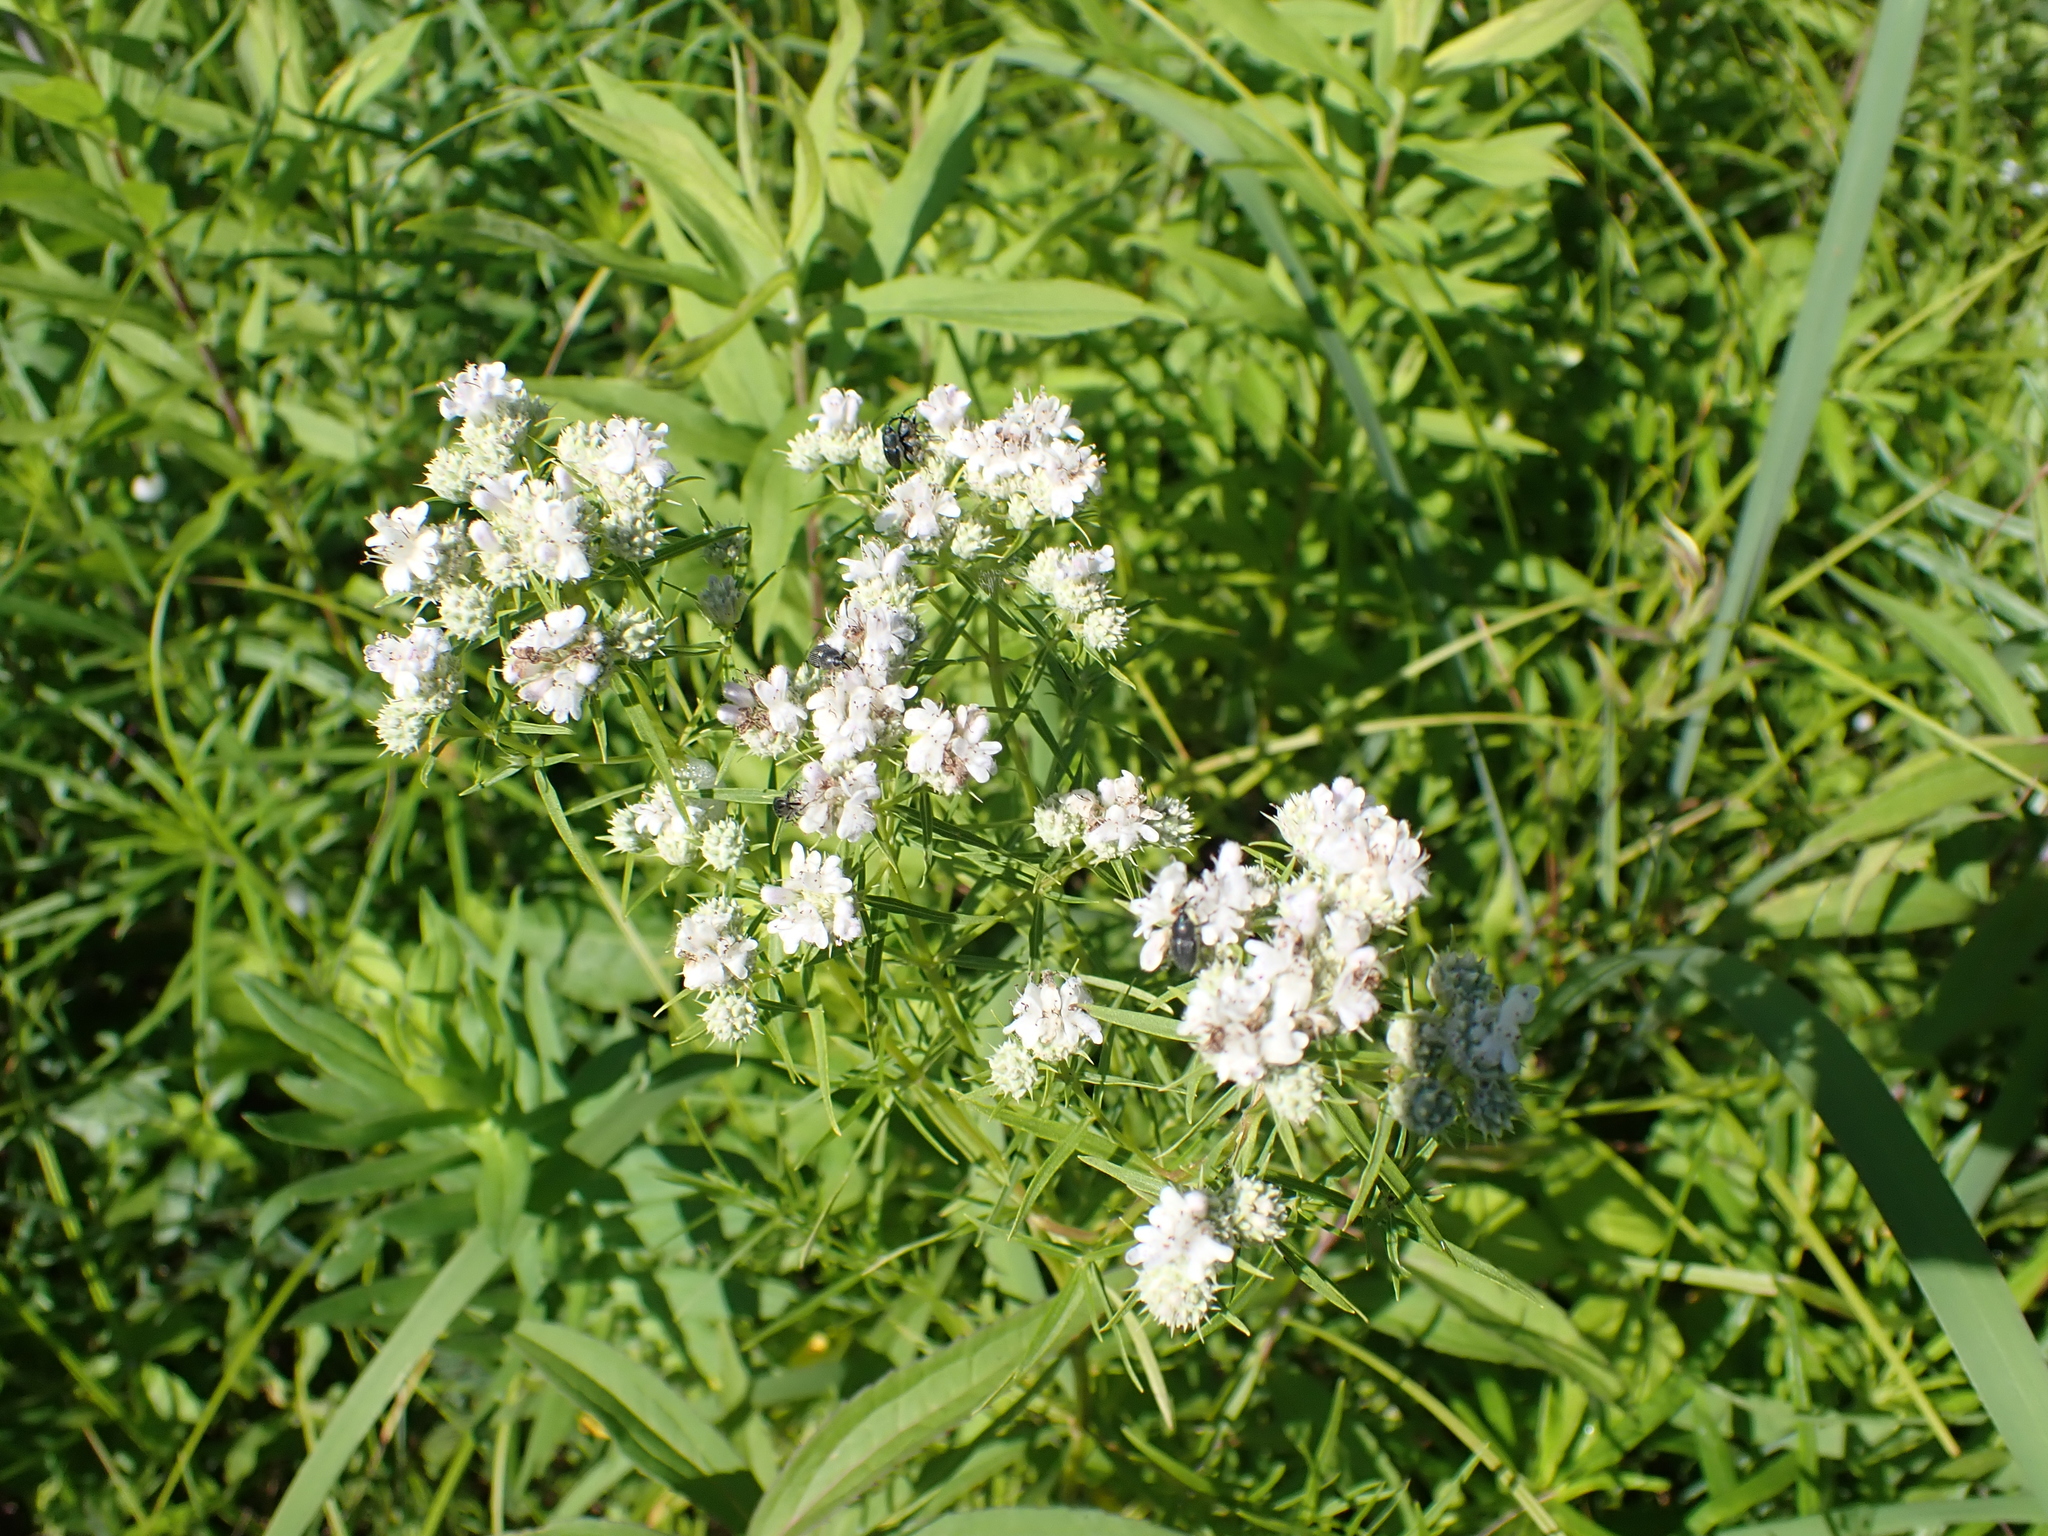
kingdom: Plantae
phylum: Tracheophyta
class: Magnoliopsida
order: Lamiales
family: Lamiaceae
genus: Pycnanthemum
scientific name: Pycnanthemum tenuifolium
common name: Narrow-leaf mountain-mint
